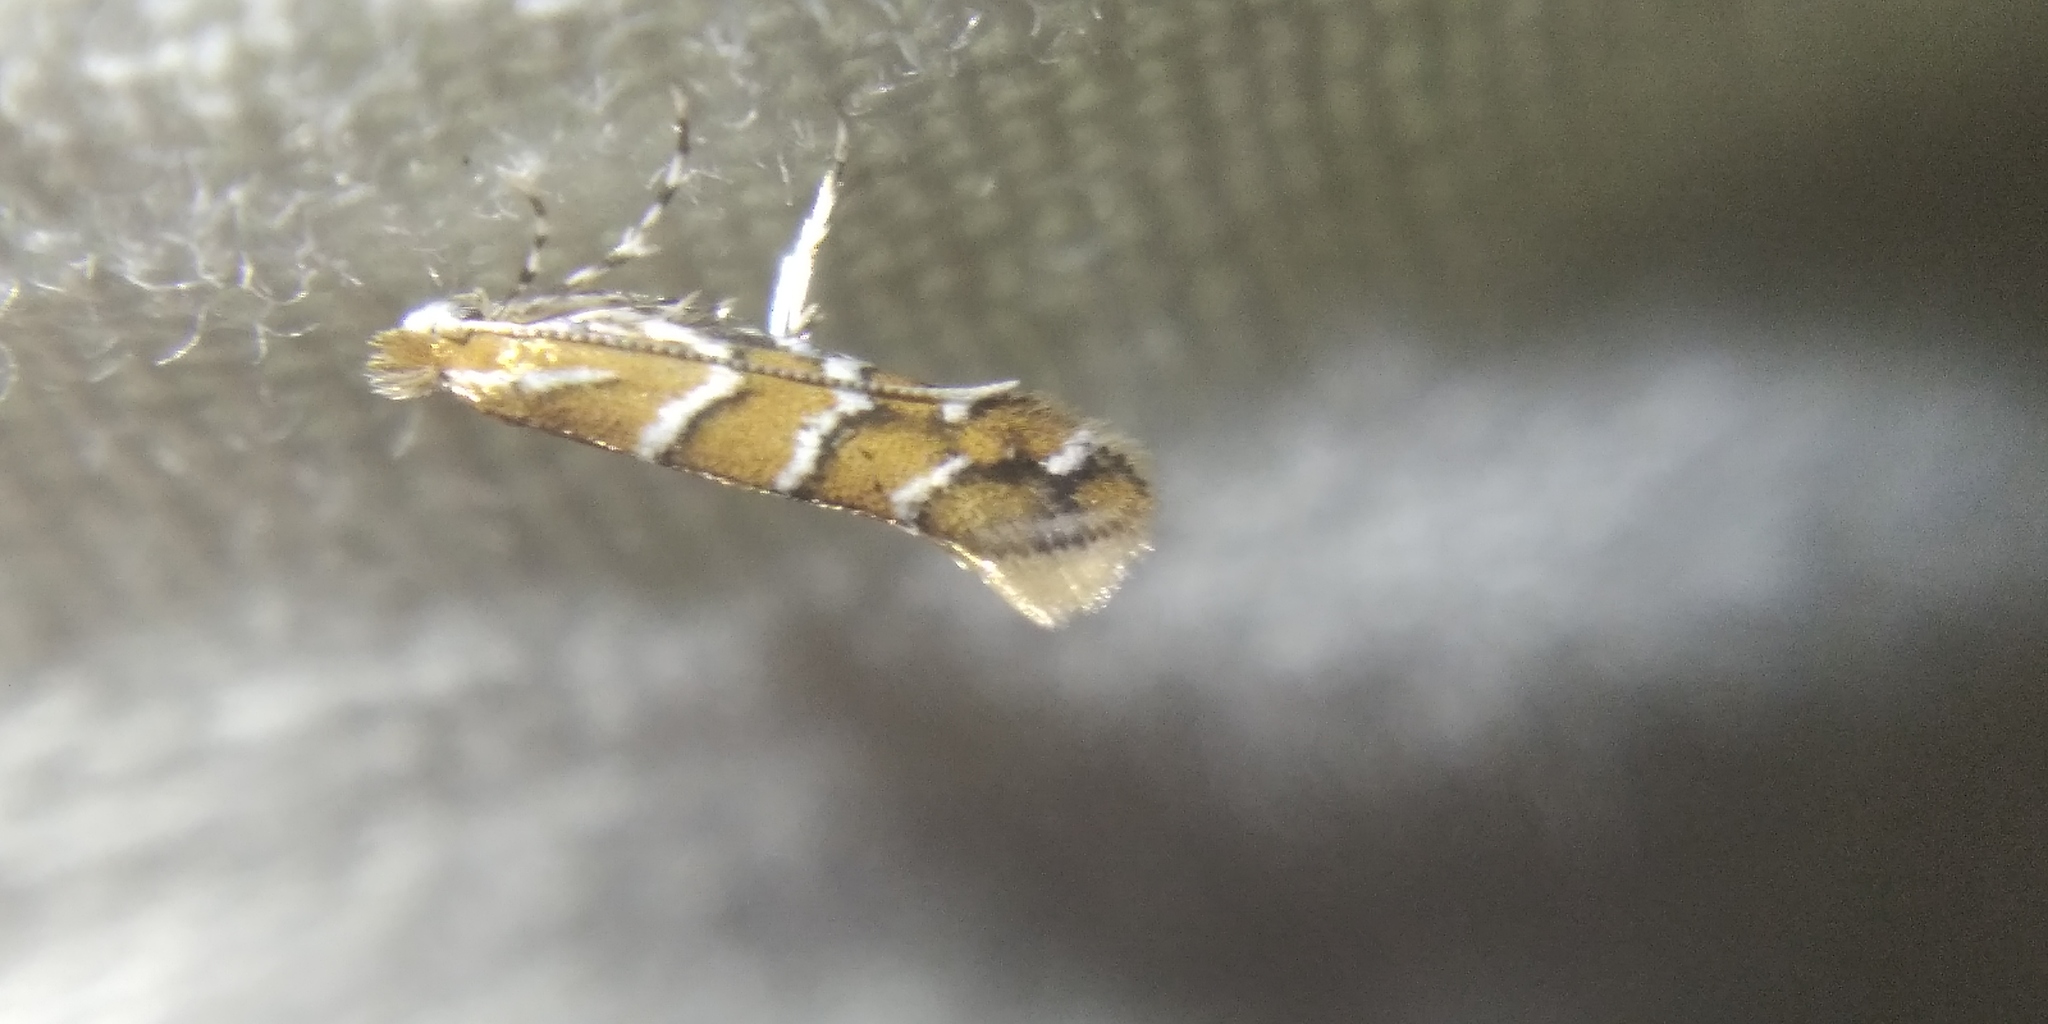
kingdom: Animalia
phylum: Arthropoda
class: Insecta
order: Lepidoptera
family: Gracillariidae
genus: Cameraria
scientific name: Cameraria ohridella
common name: Horse-chestnut leaf-miner
